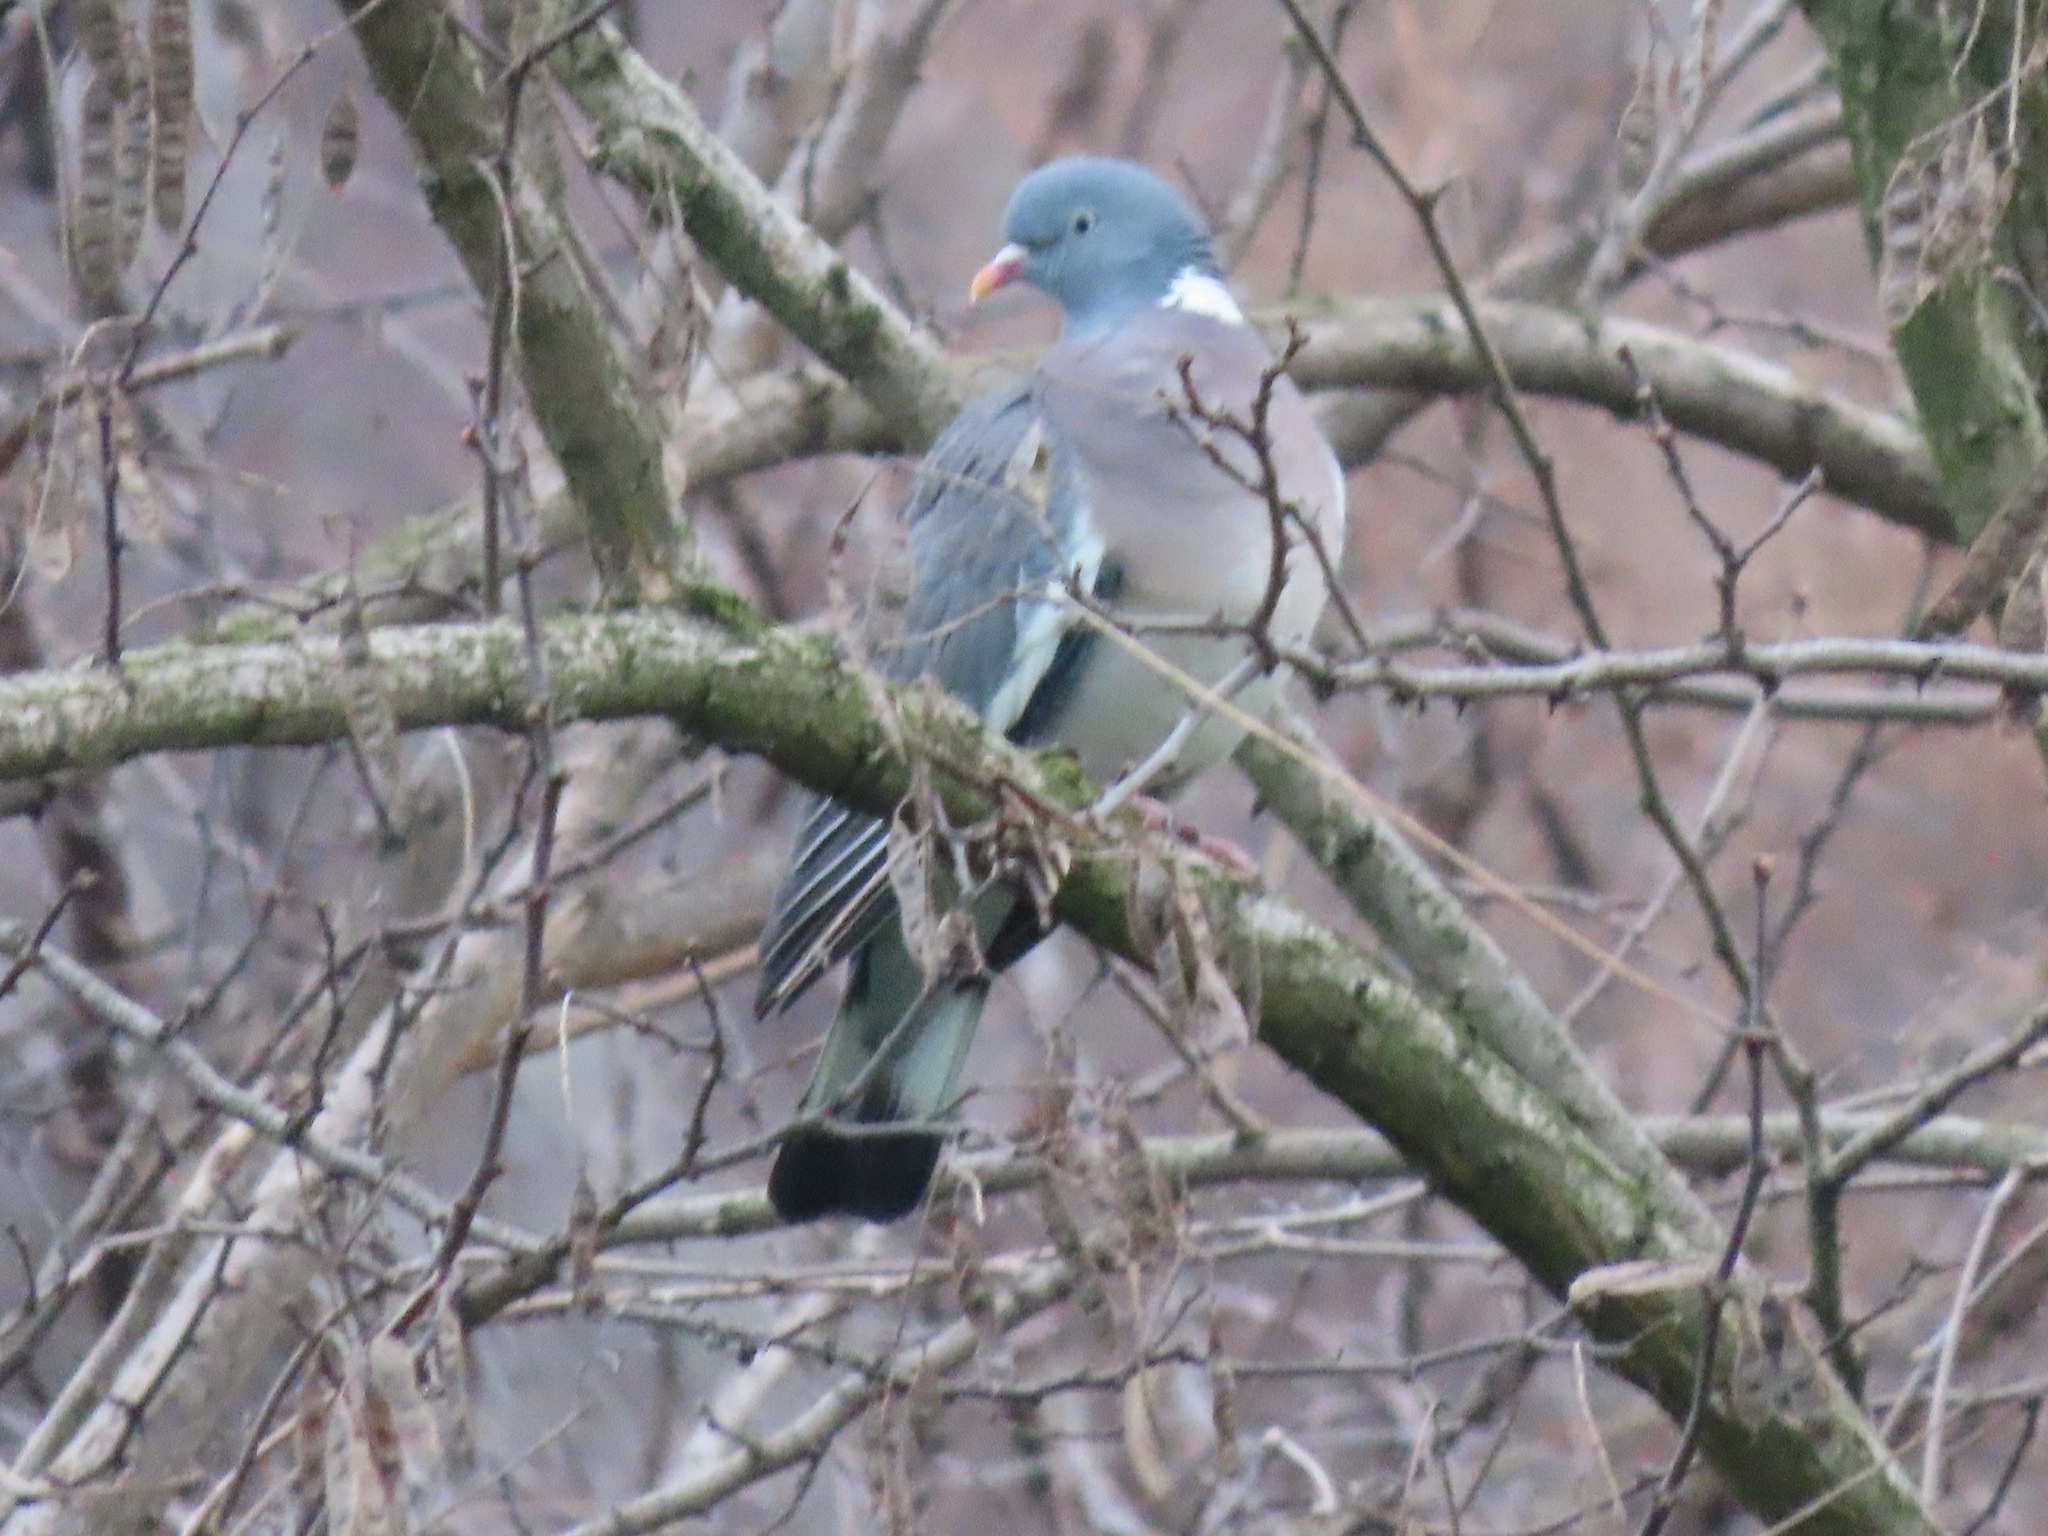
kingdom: Animalia
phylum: Chordata
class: Aves
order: Columbiformes
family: Columbidae
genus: Columba
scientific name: Columba palumbus
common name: Common wood pigeon
